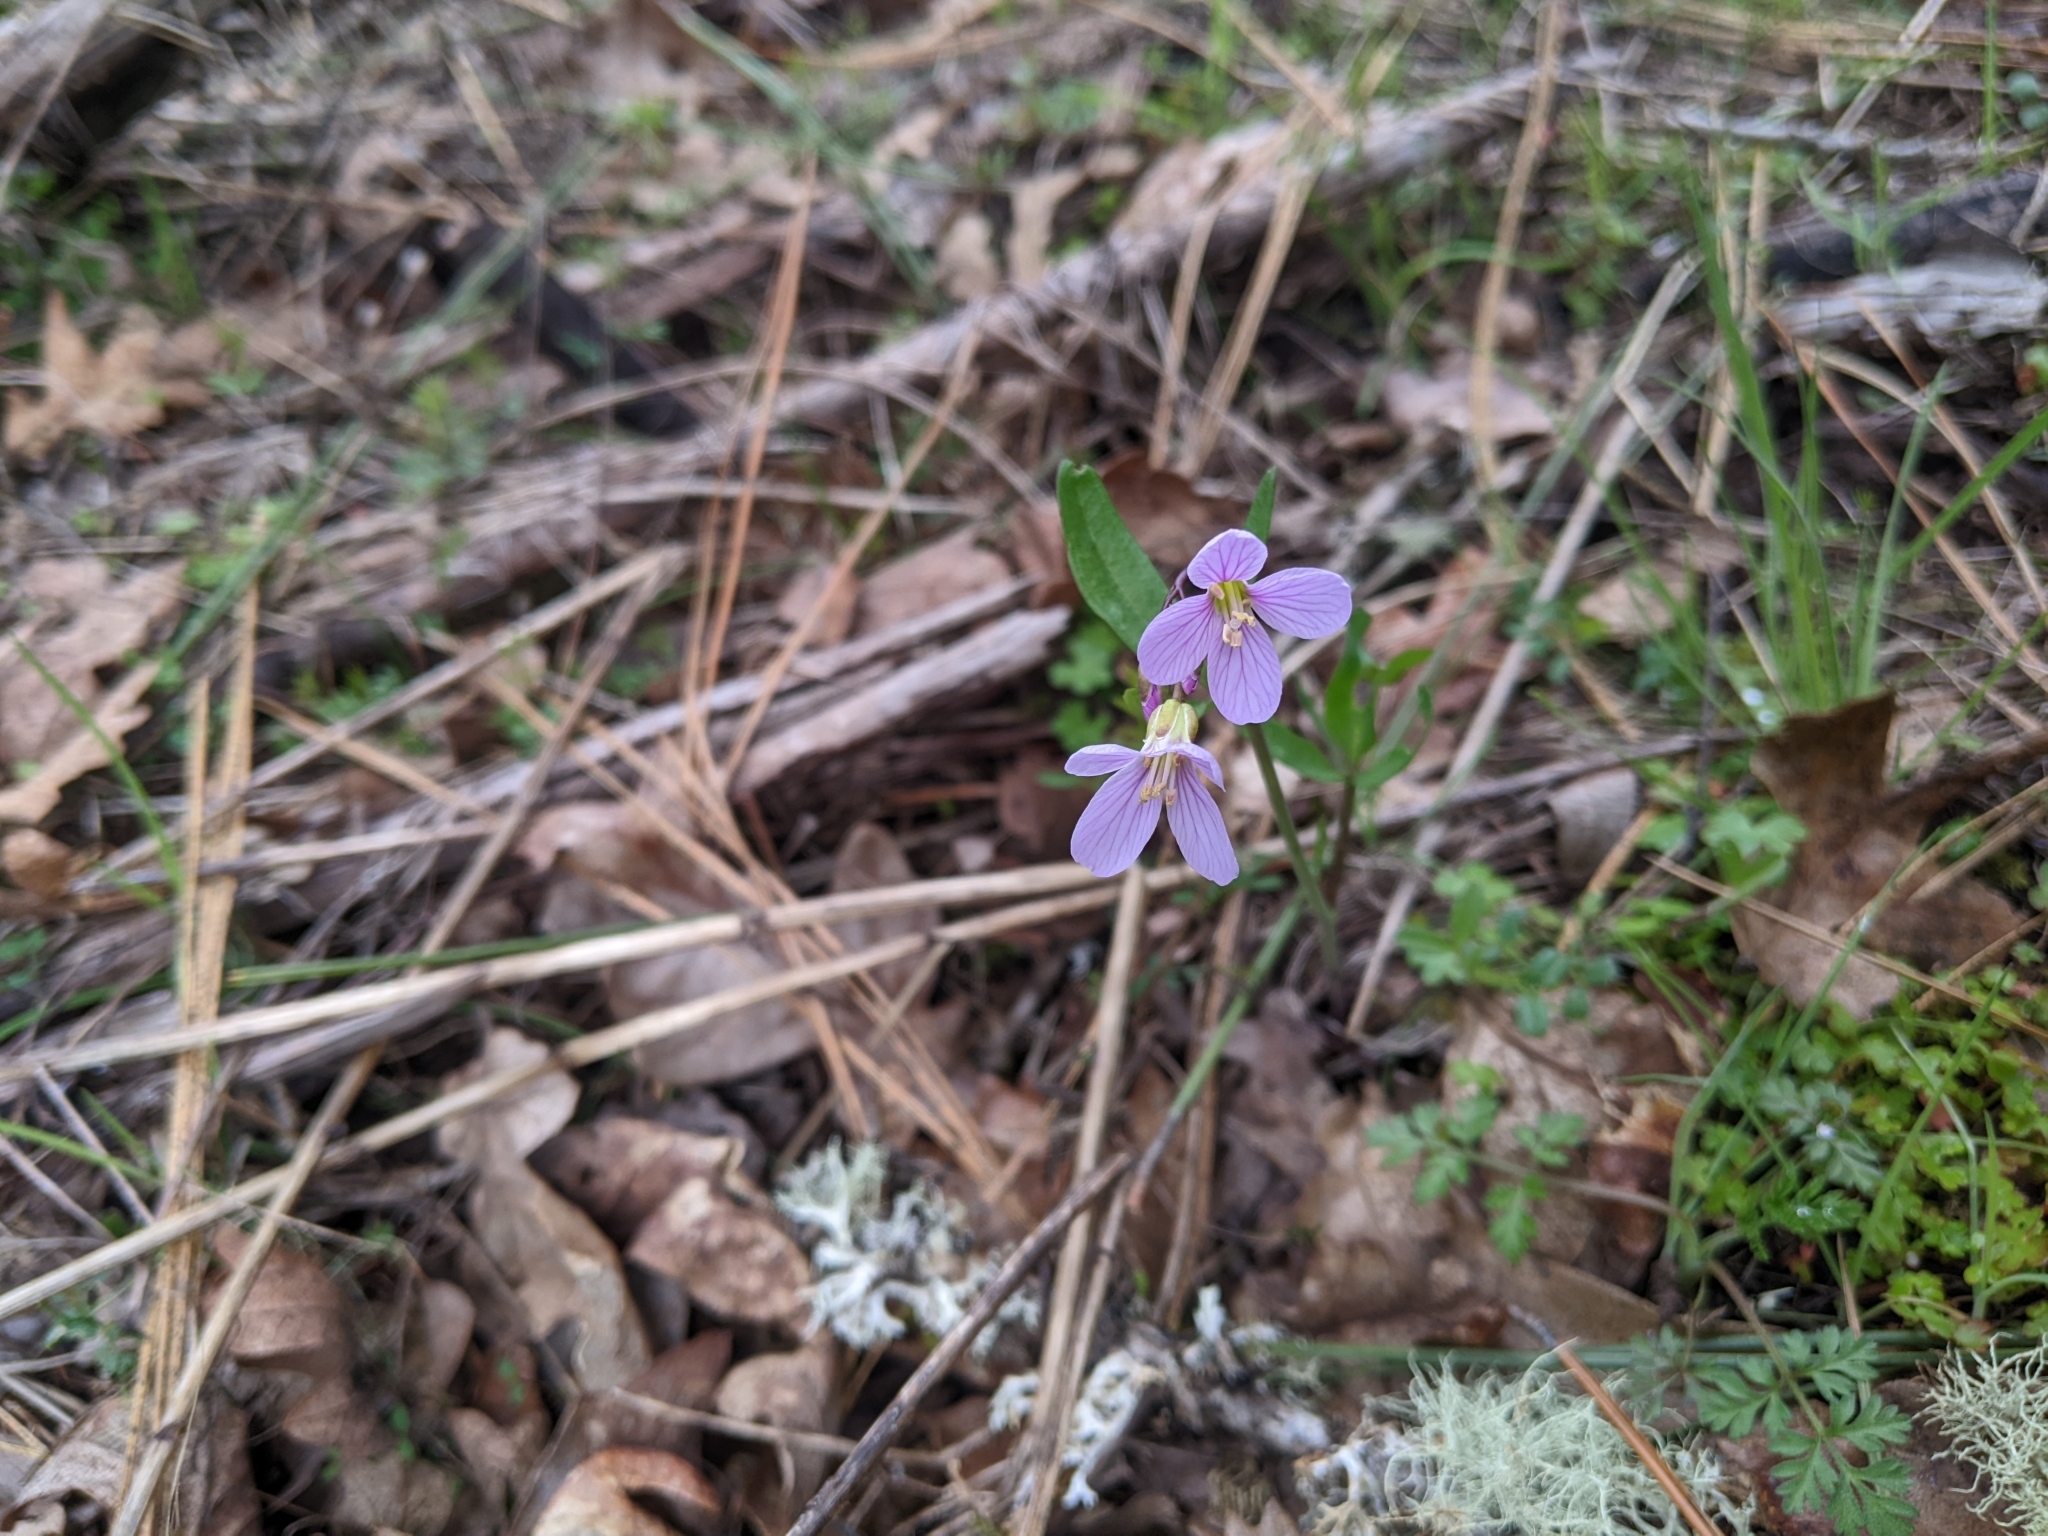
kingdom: Plantae
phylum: Tracheophyta
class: Magnoliopsida
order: Brassicales
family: Brassicaceae
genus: Cardamine
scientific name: Cardamine nuttallii
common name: Nuttall's toothwort
